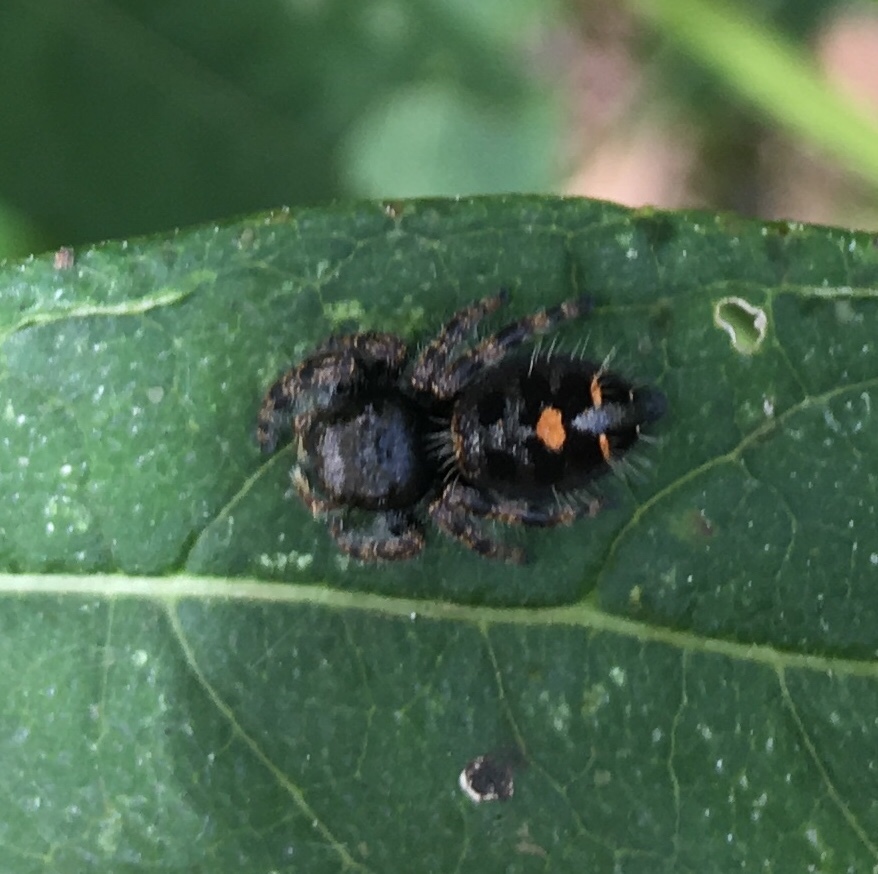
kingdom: Animalia
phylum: Arthropoda
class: Arachnida
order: Araneae
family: Salticidae
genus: Phidippus
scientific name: Phidippus audax
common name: Bold jumper
